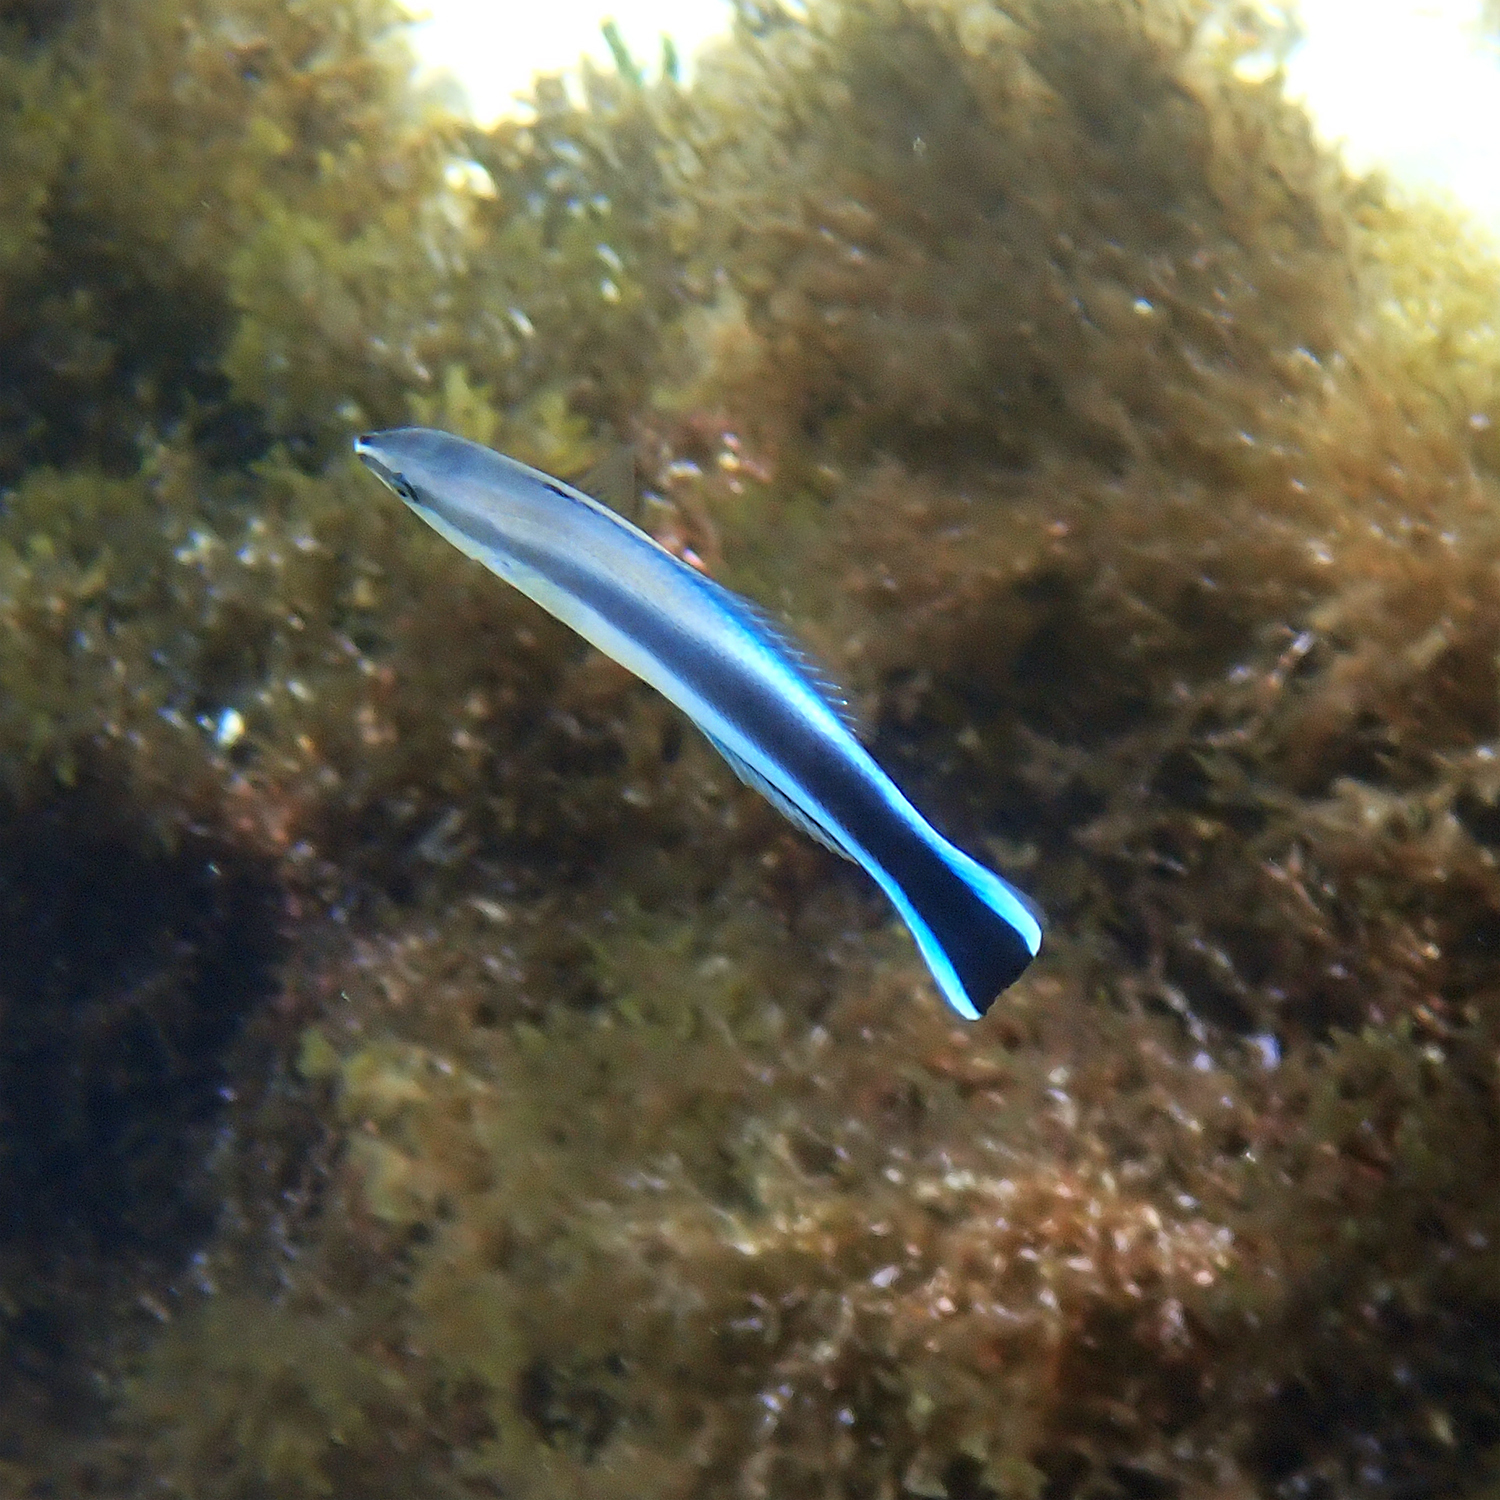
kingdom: Animalia
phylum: Chordata
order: Perciformes
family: Labridae
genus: Labroides
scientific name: Labroides dimidiatus
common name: Blue diesel wrasse
